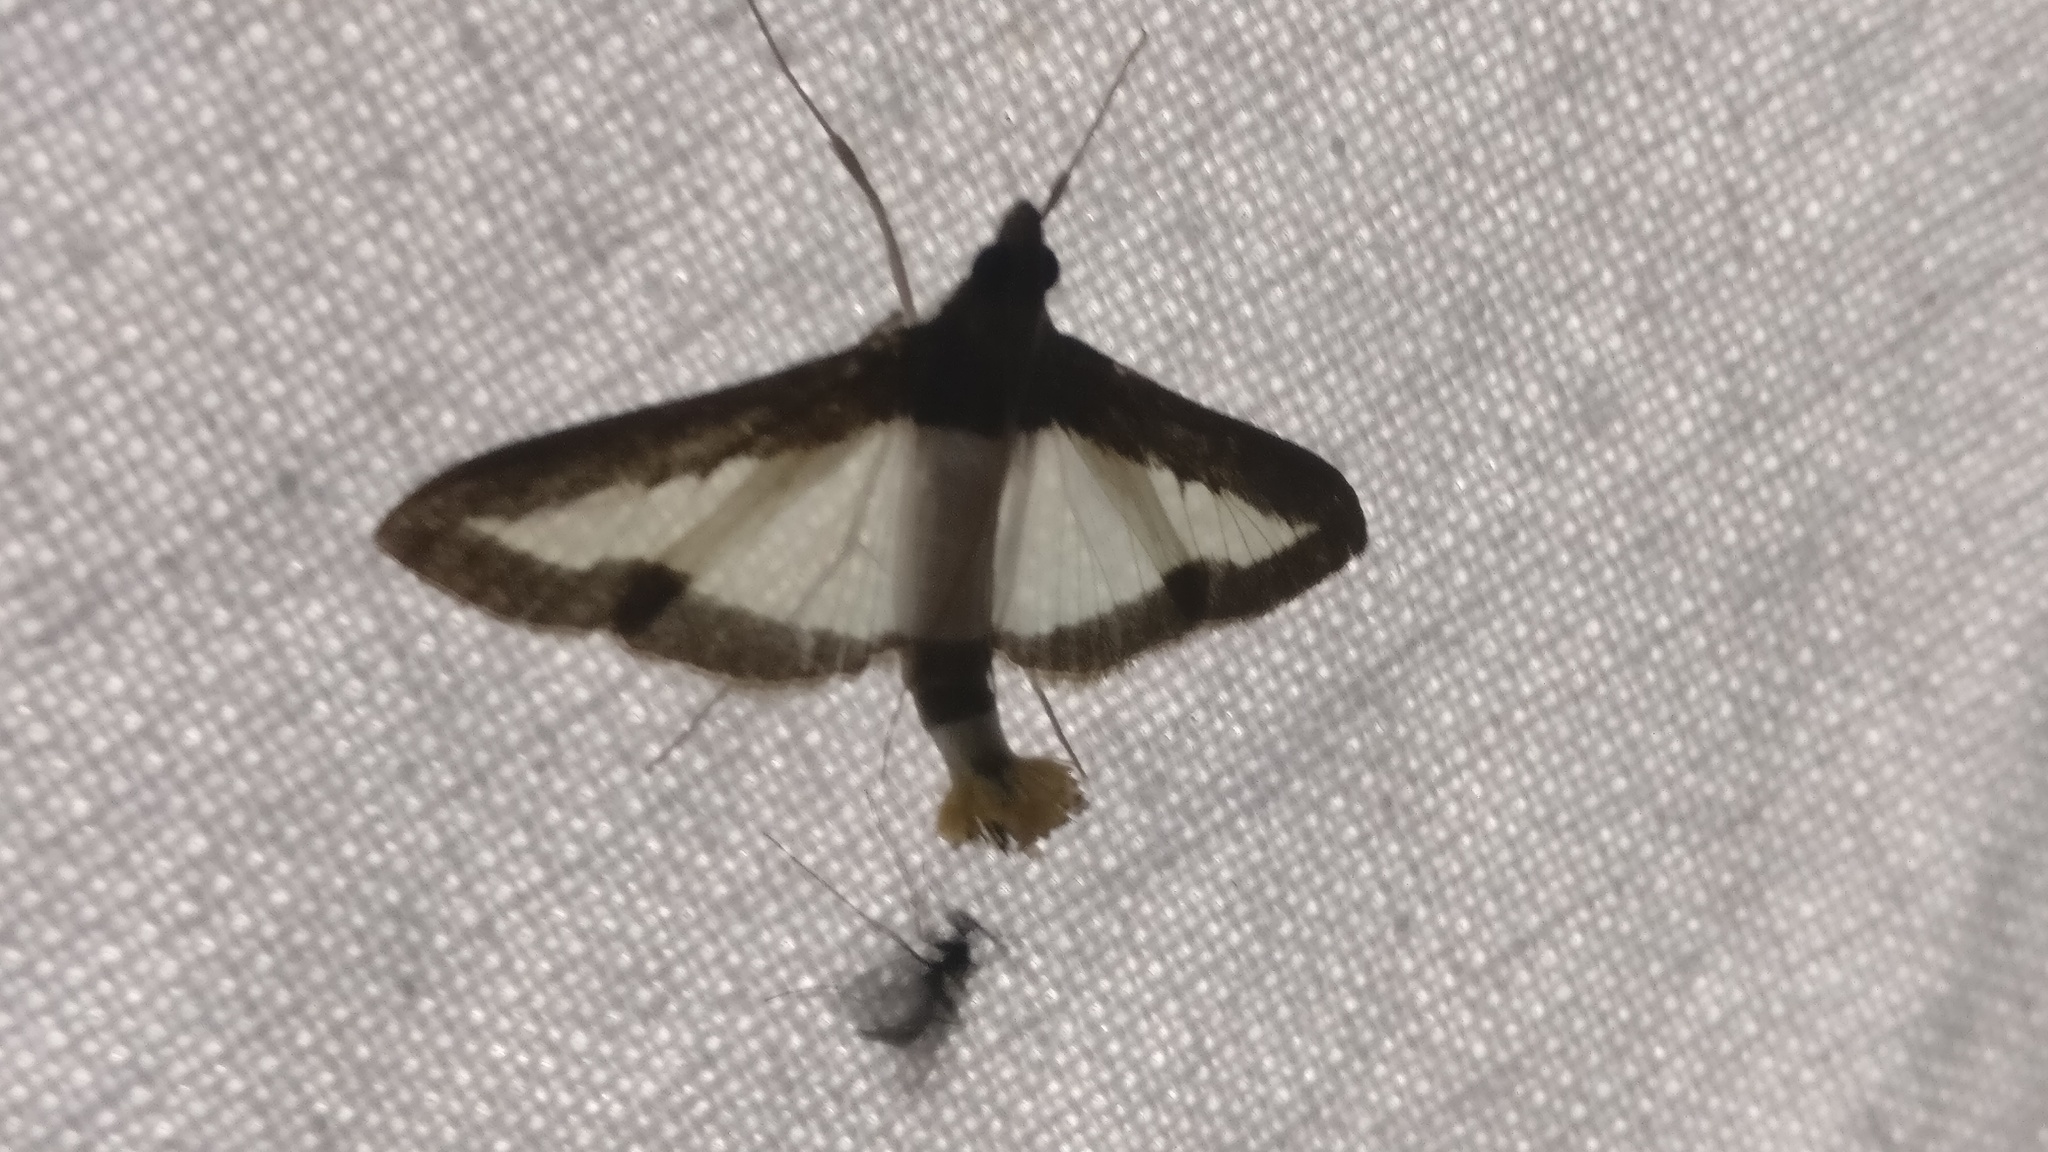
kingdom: Animalia
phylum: Arthropoda
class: Insecta
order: Lepidoptera
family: Crambidae
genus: Diaphania
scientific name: Diaphania indica
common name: Cucumber moth
